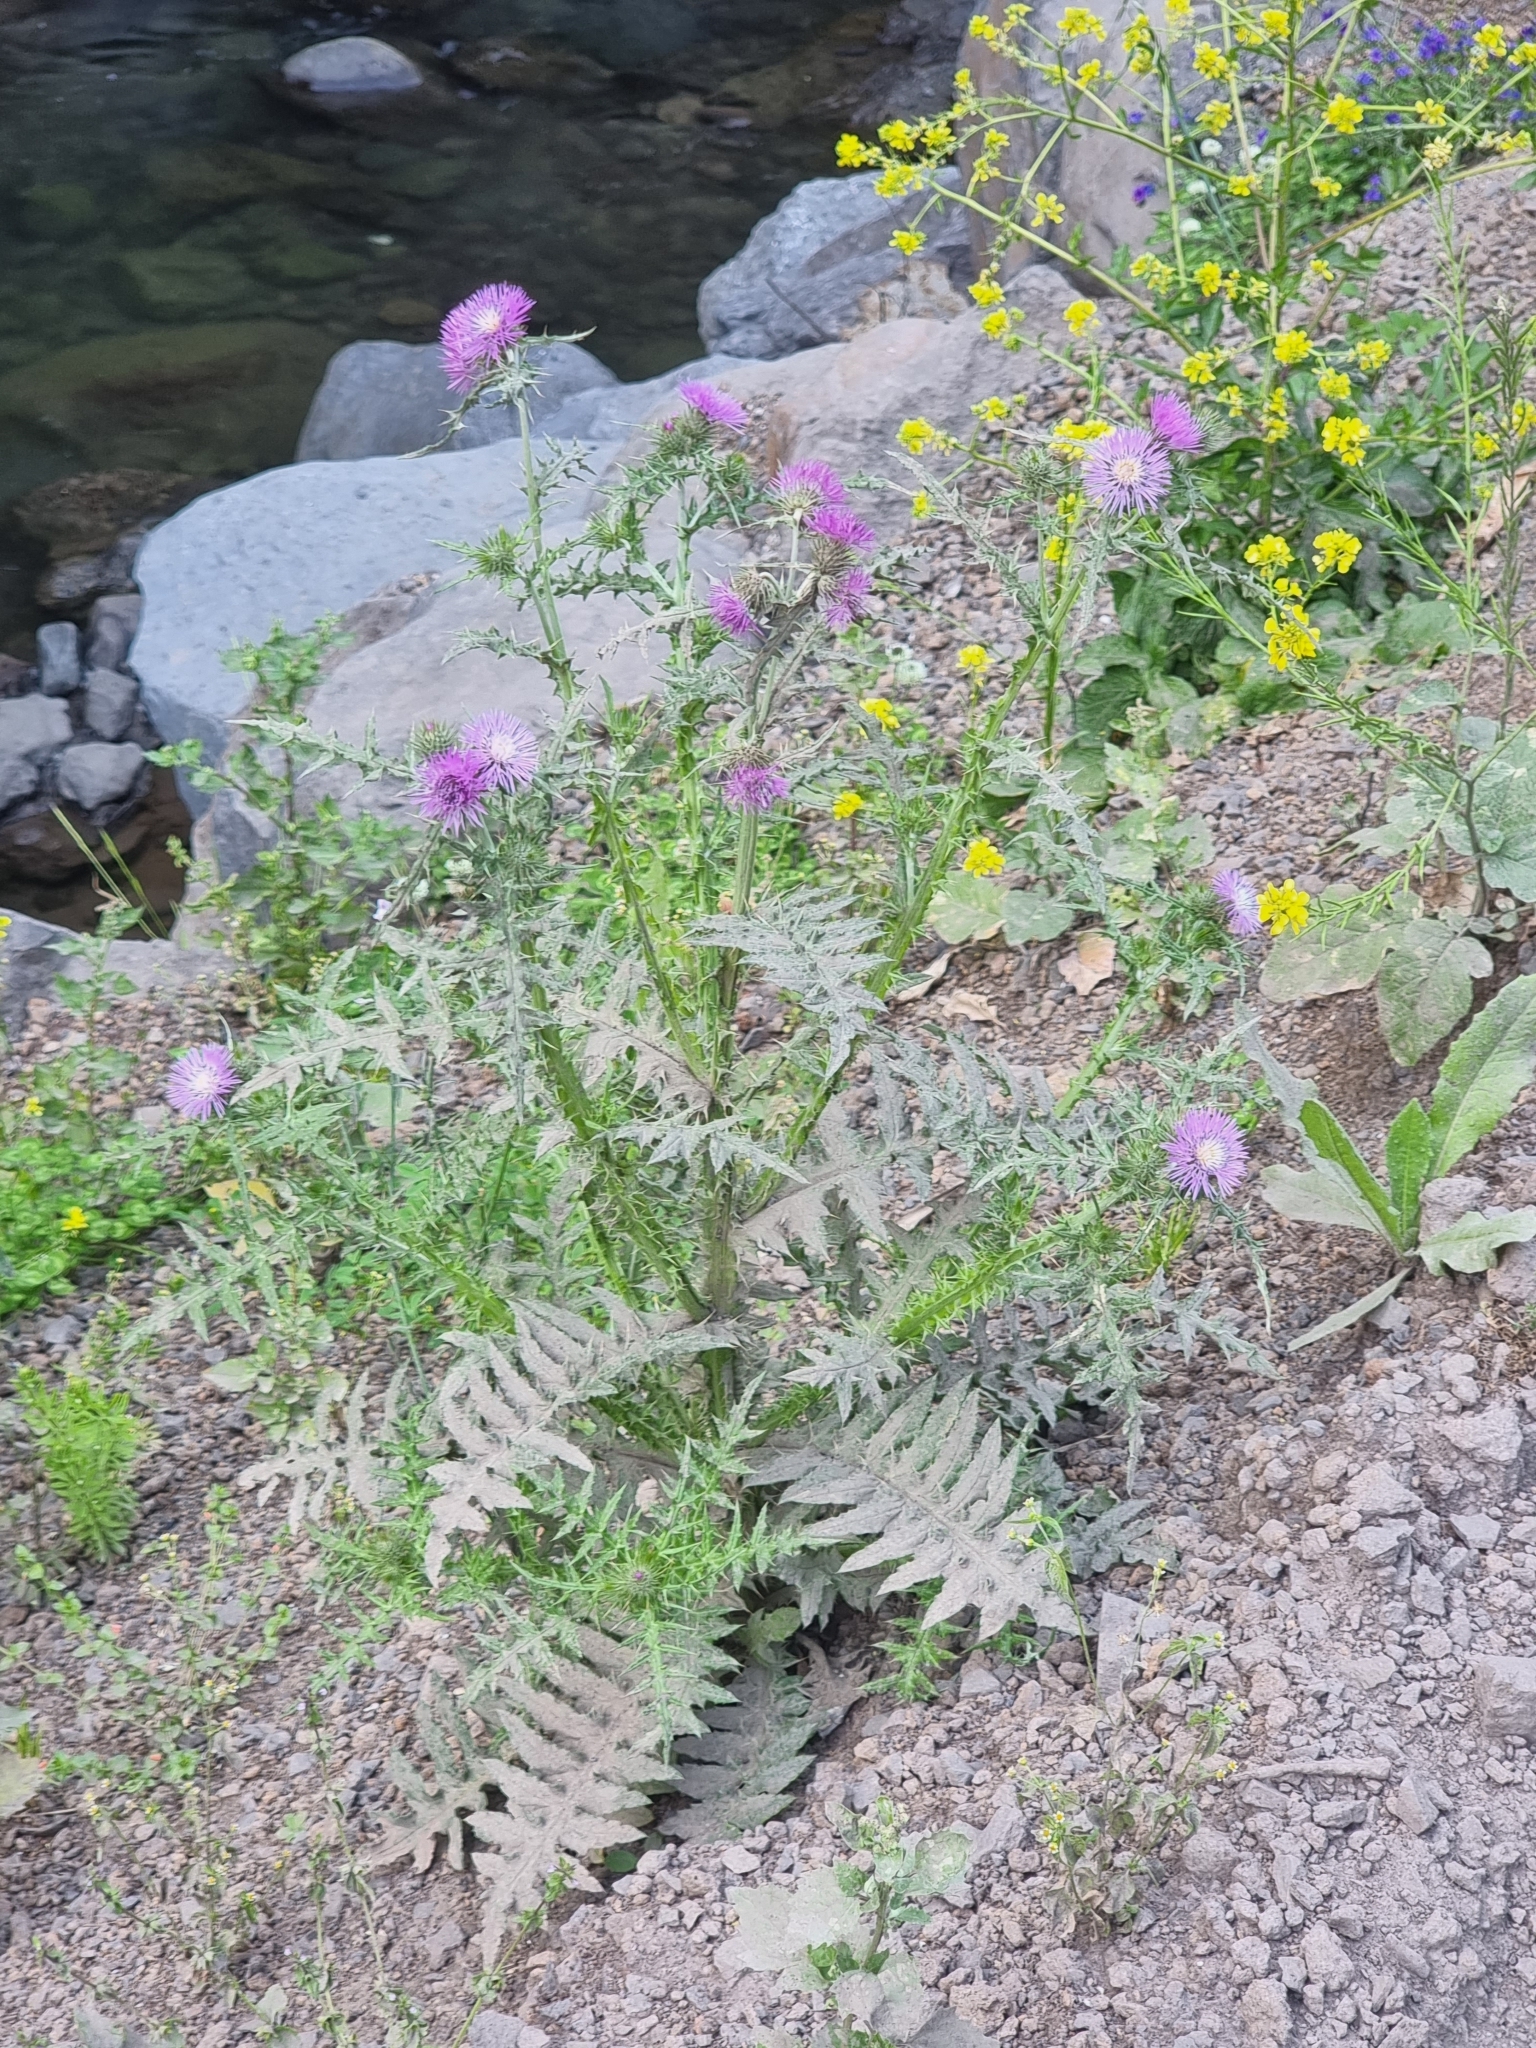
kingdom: Plantae
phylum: Tracheophyta
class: Magnoliopsida
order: Asterales
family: Asteraceae
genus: Galactites
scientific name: Galactites tomentosa
